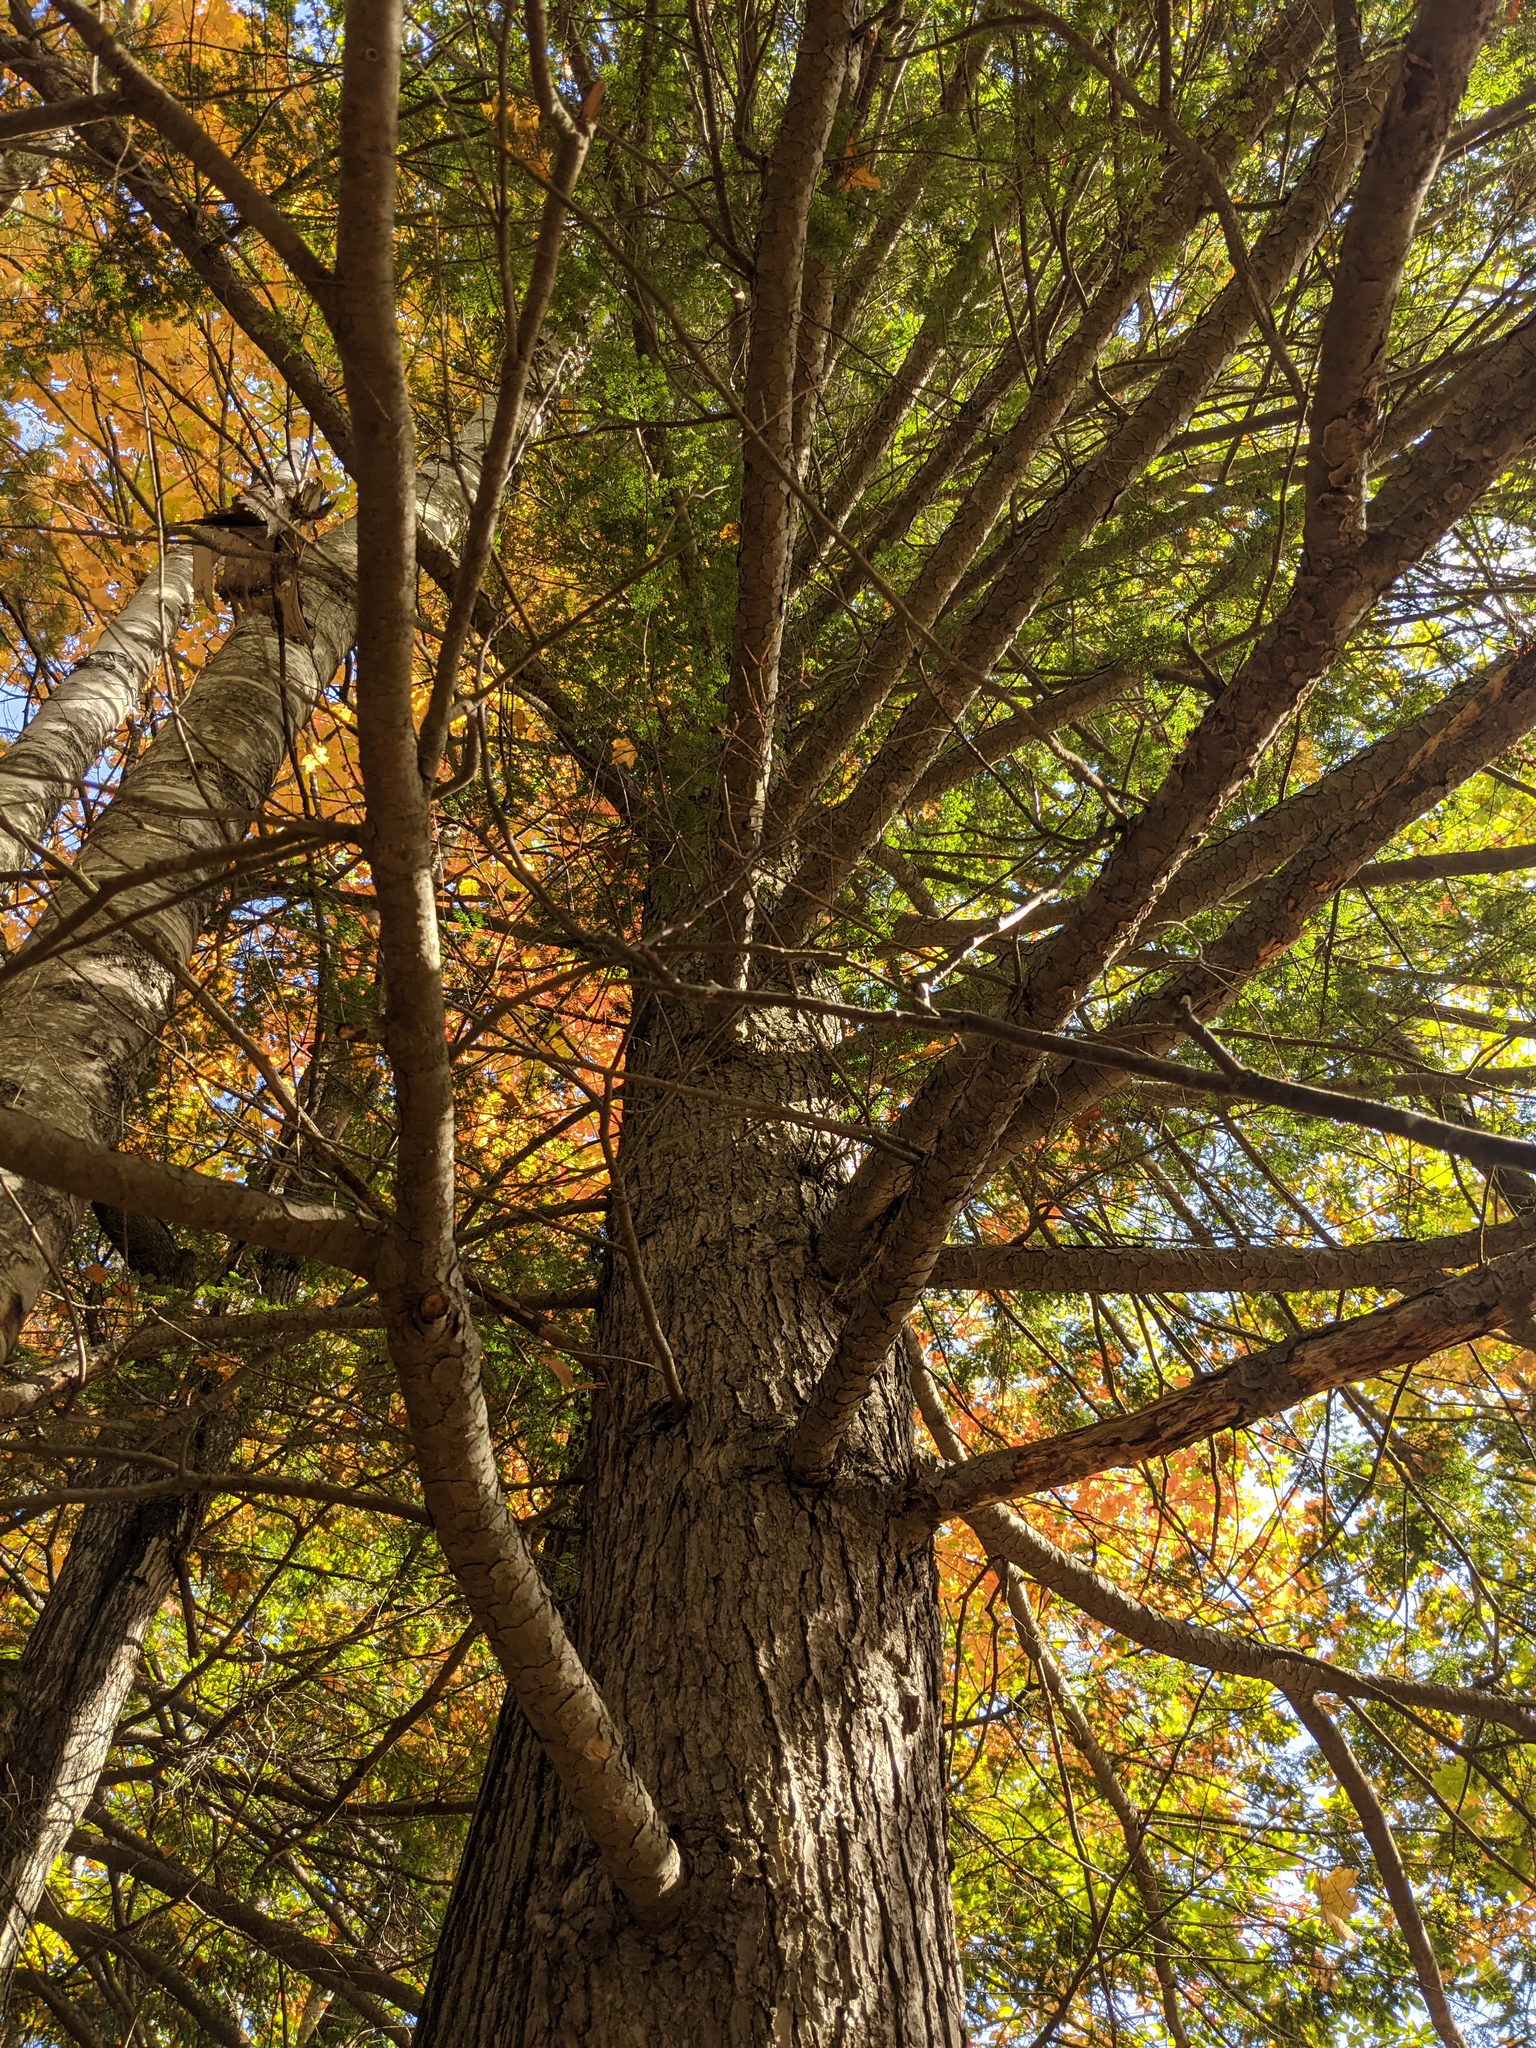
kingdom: Plantae
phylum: Tracheophyta
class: Pinopsida
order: Pinales
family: Pinaceae
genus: Tsuga
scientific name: Tsuga canadensis
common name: Eastern hemlock
